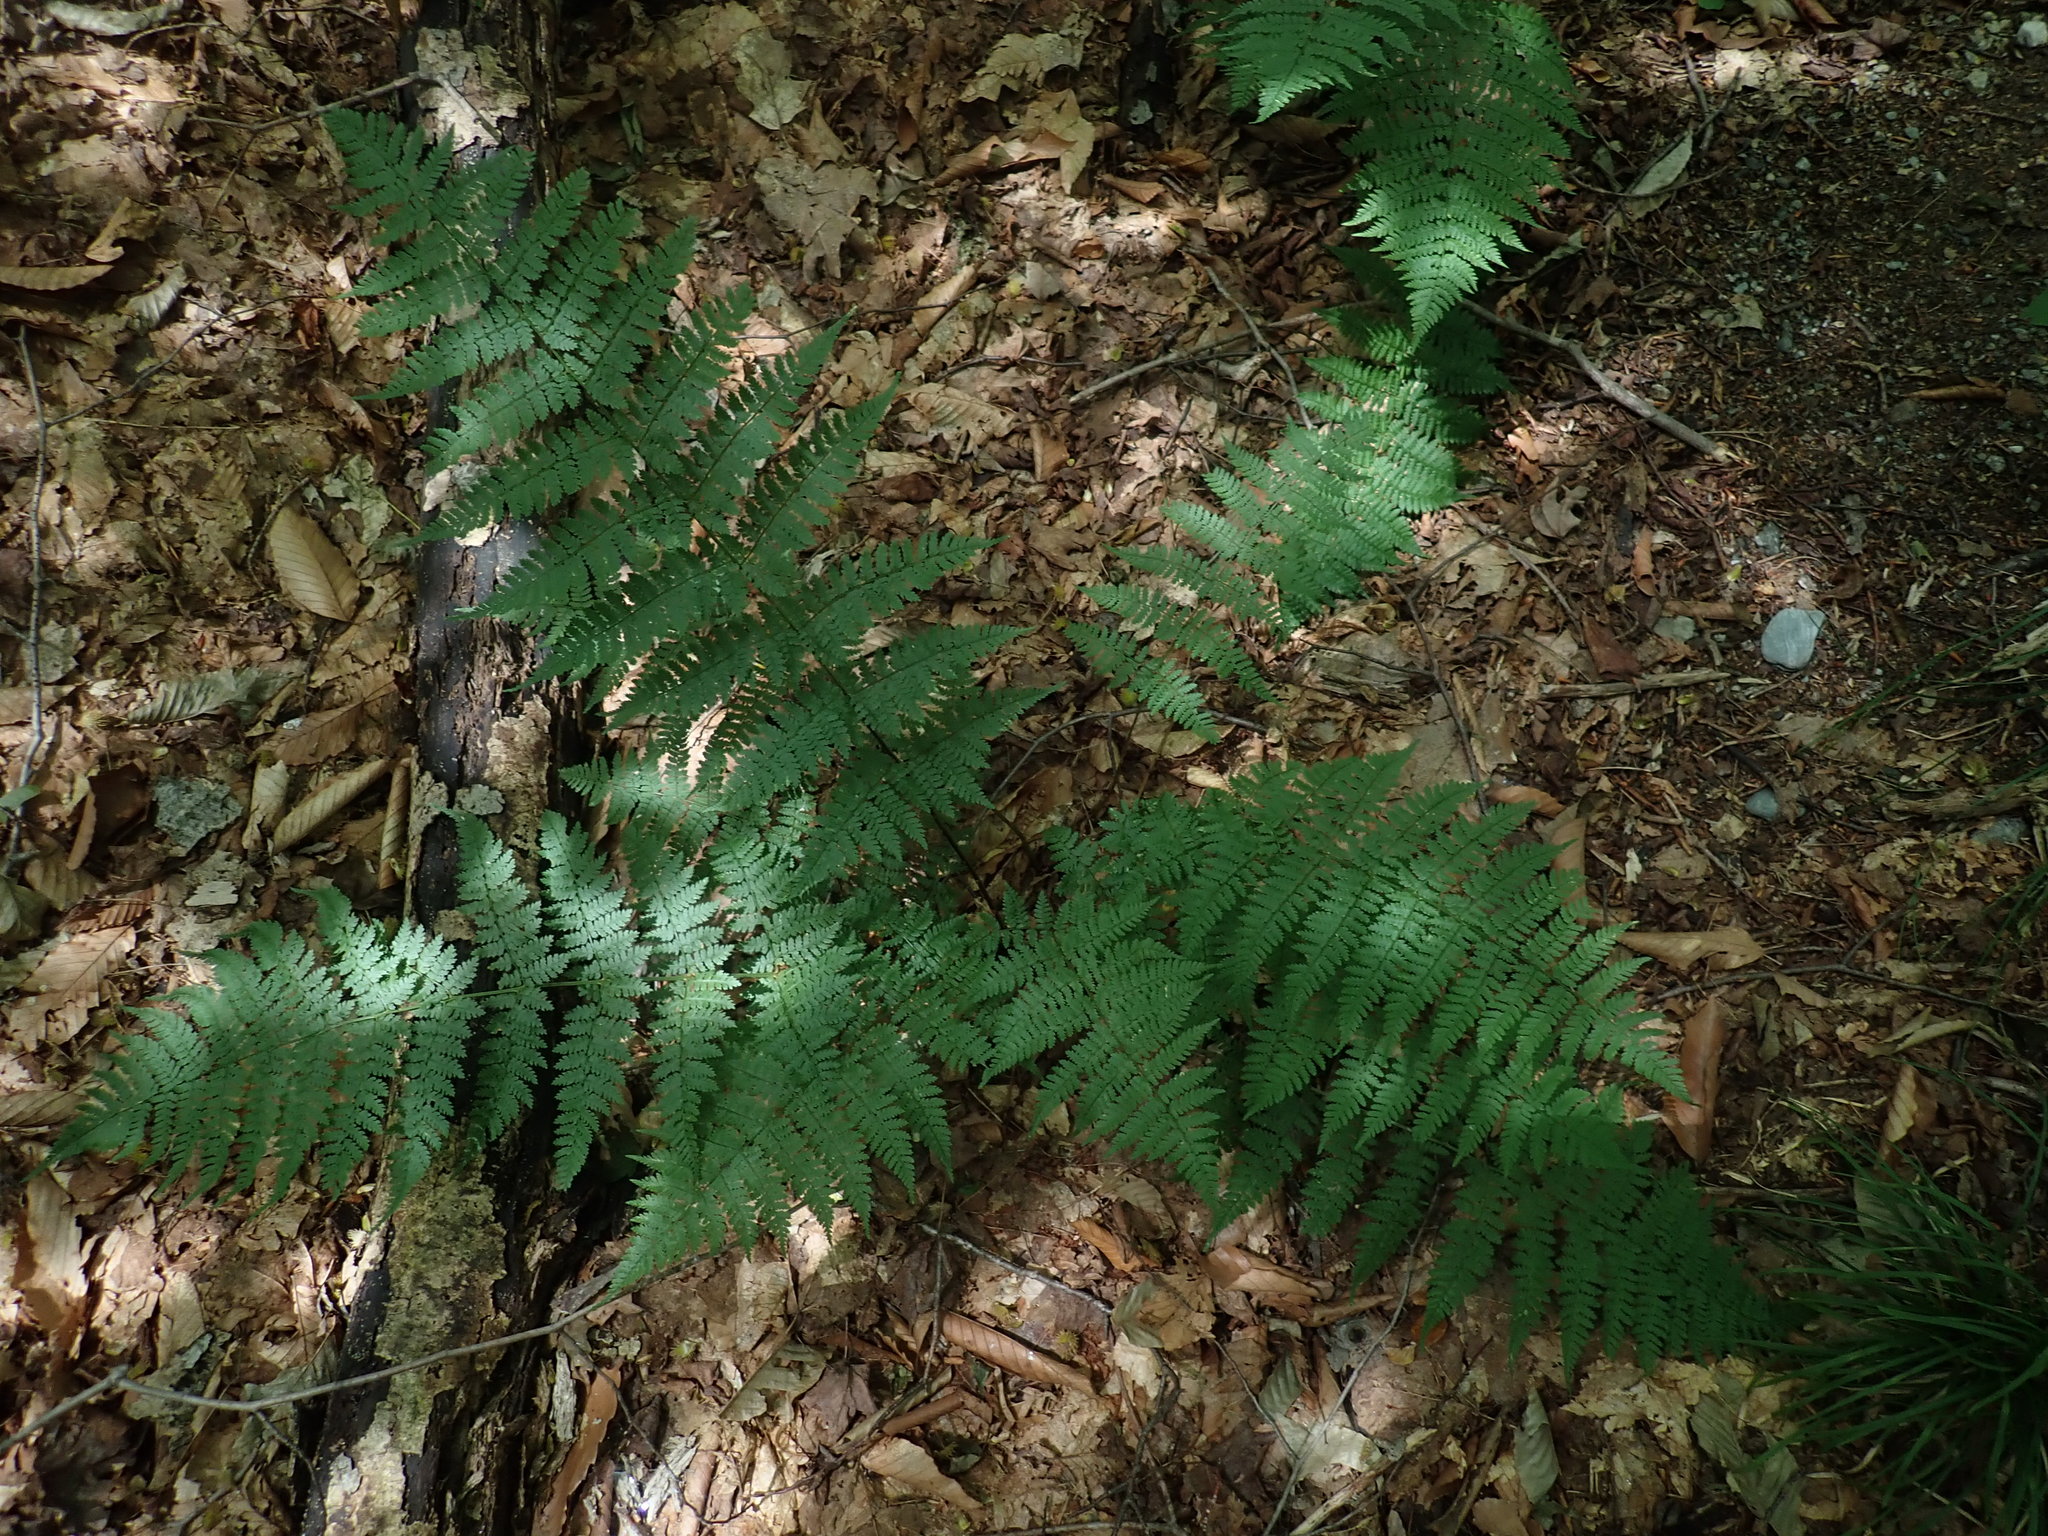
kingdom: Plantae
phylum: Tracheophyta
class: Polypodiopsida
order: Polypodiales
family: Dryopteridaceae
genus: Dryopteris
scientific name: Dryopteris intermedia
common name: Evergreen wood fern
